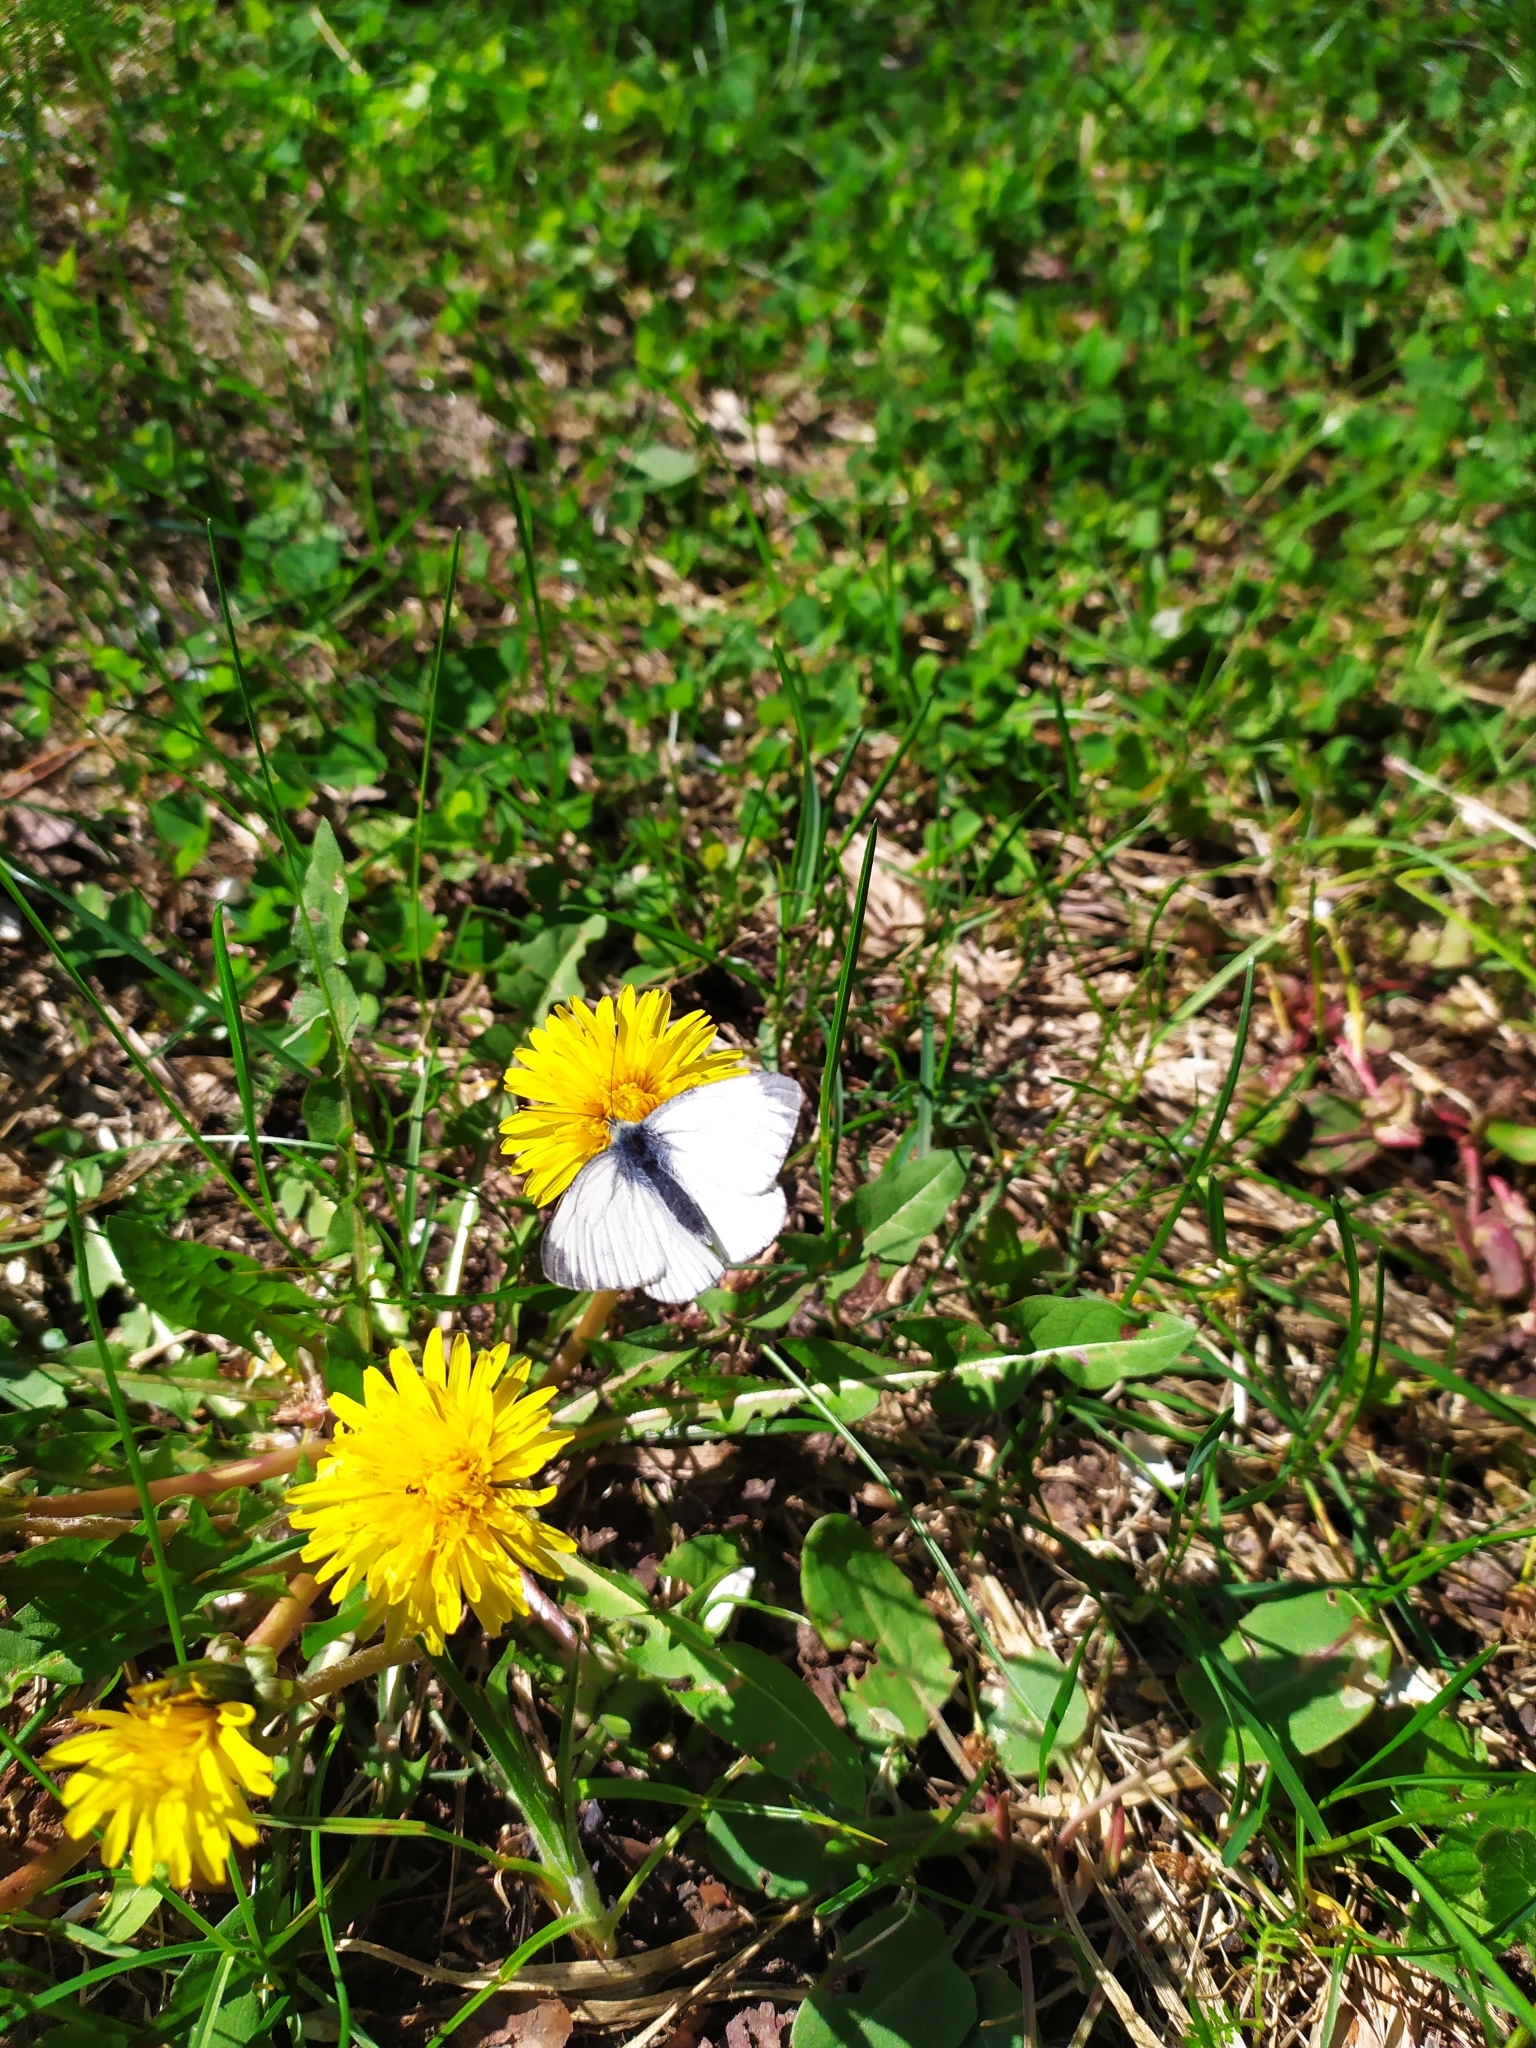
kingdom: Animalia
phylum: Arthropoda
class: Insecta
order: Lepidoptera
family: Pieridae
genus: Pieris
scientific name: Pieris napi
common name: Green-veined white
